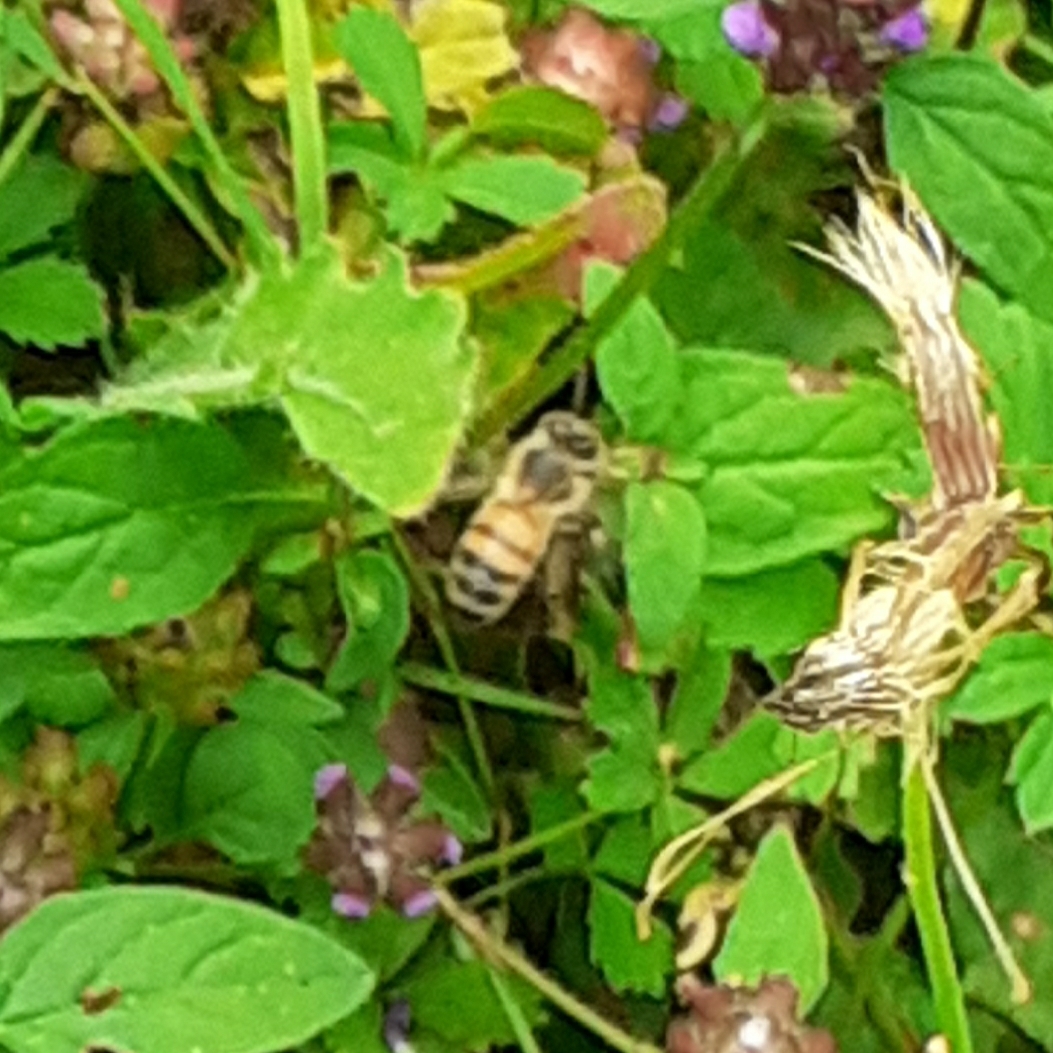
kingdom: Animalia
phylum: Arthropoda
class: Insecta
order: Hymenoptera
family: Apidae
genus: Apis
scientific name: Apis mellifera
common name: Honey bee
